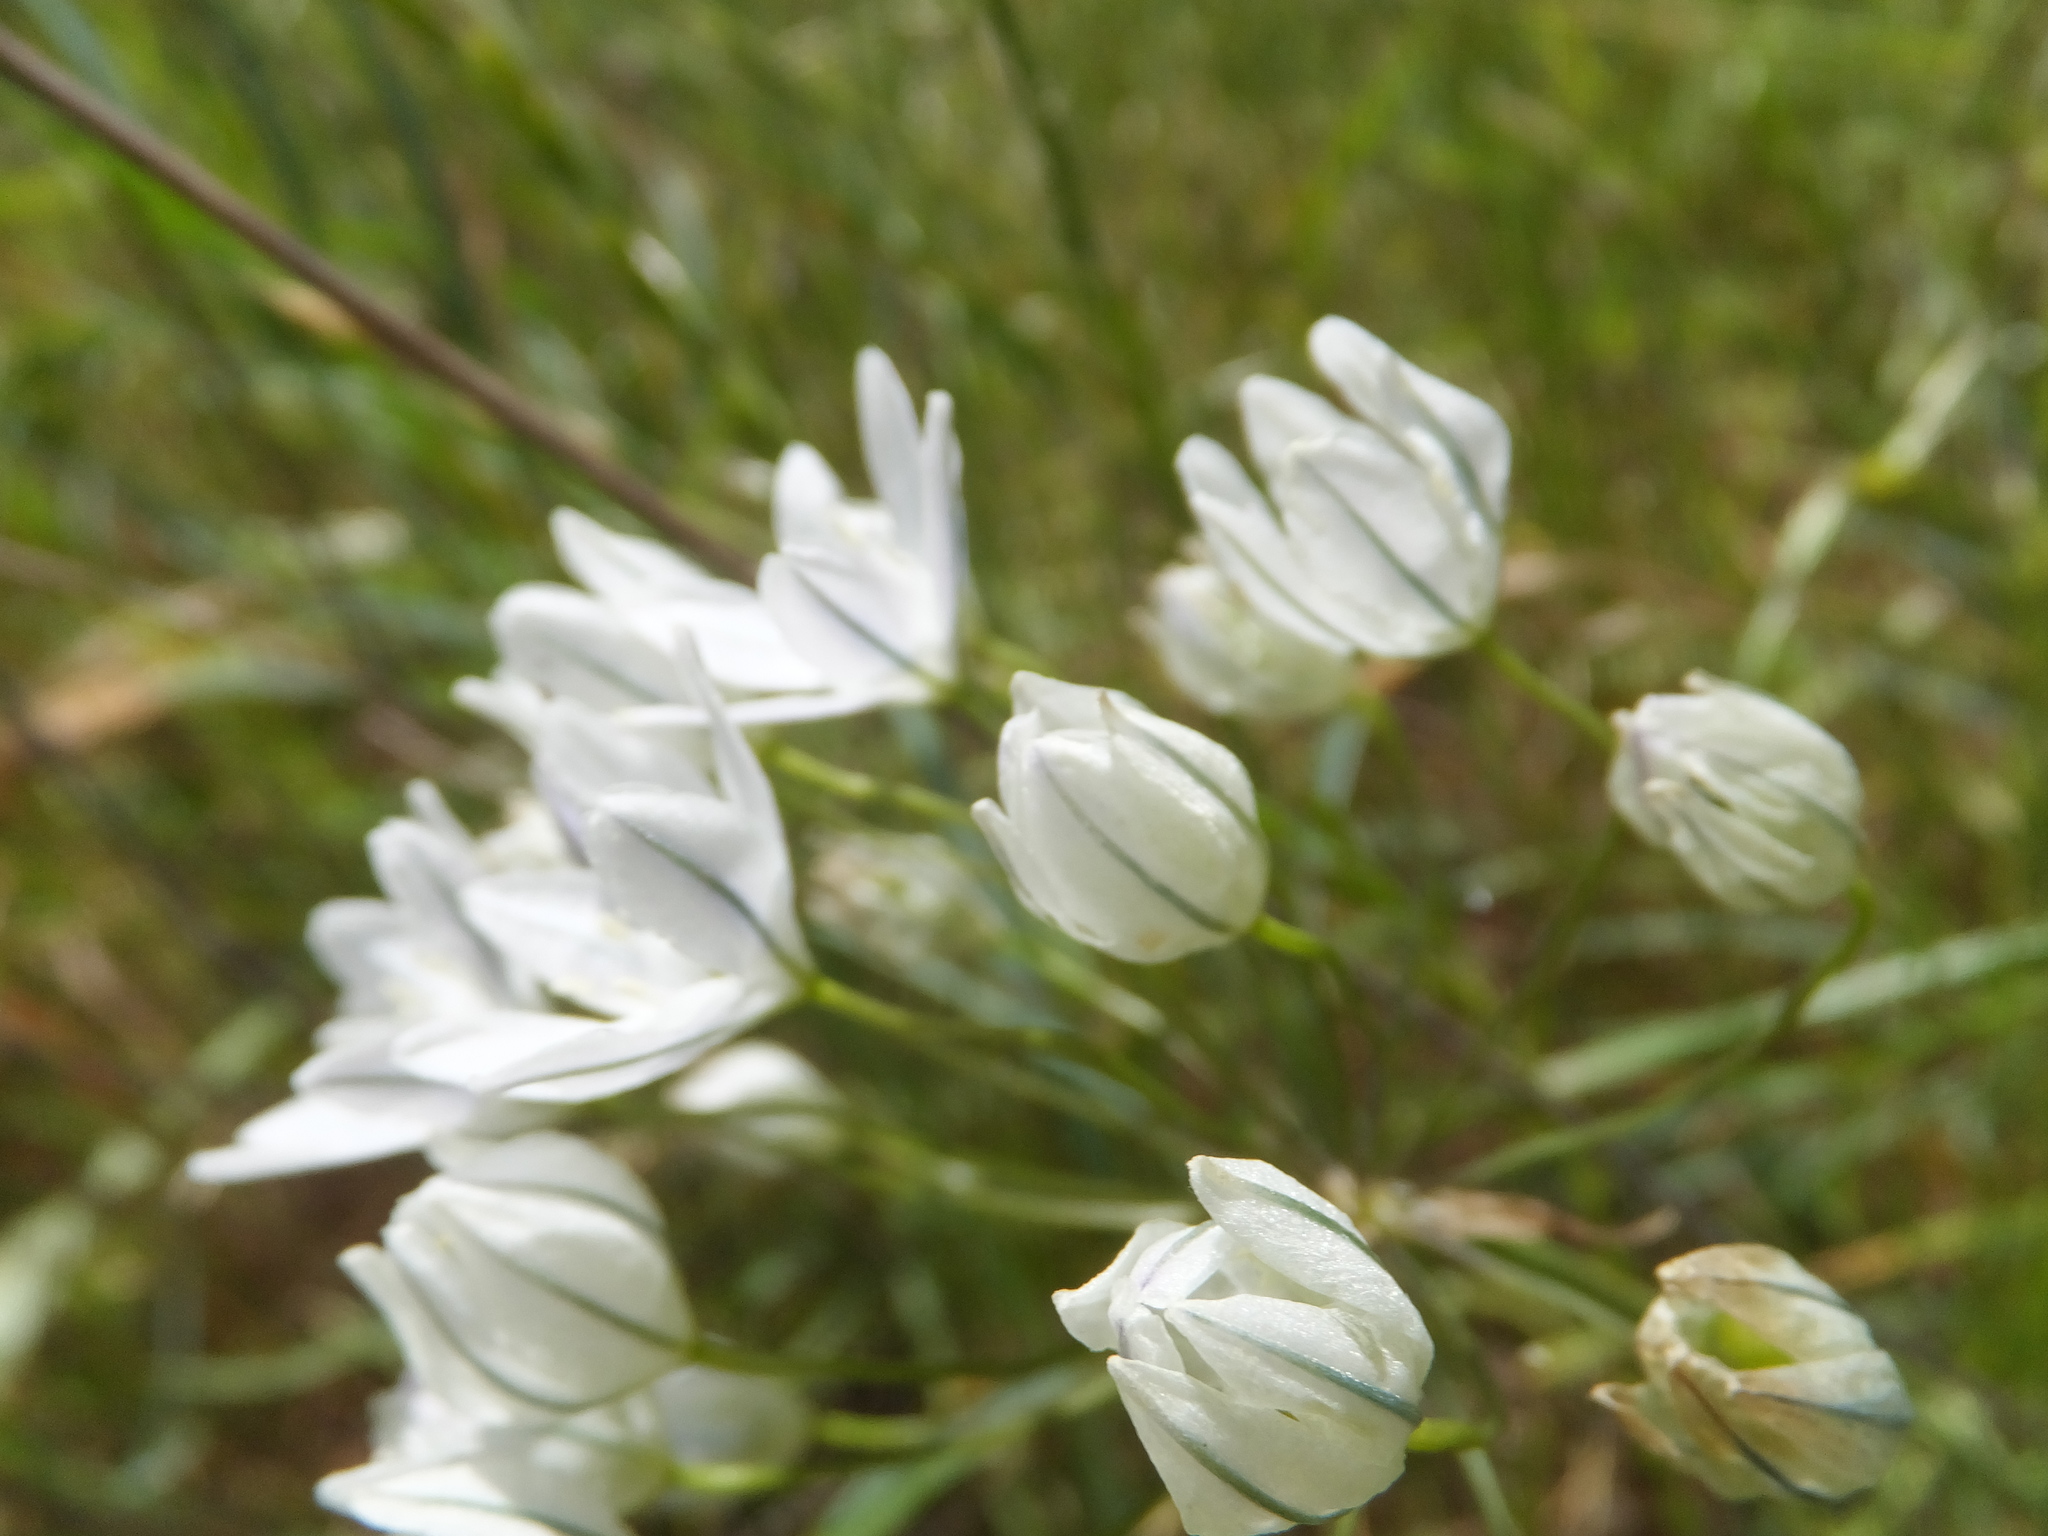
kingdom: Plantae
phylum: Tracheophyta
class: Liliopsida
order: Asparagales
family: Asparagaceae
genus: Triteleia
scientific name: Triteleia hyacinthina
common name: White brodiaea
